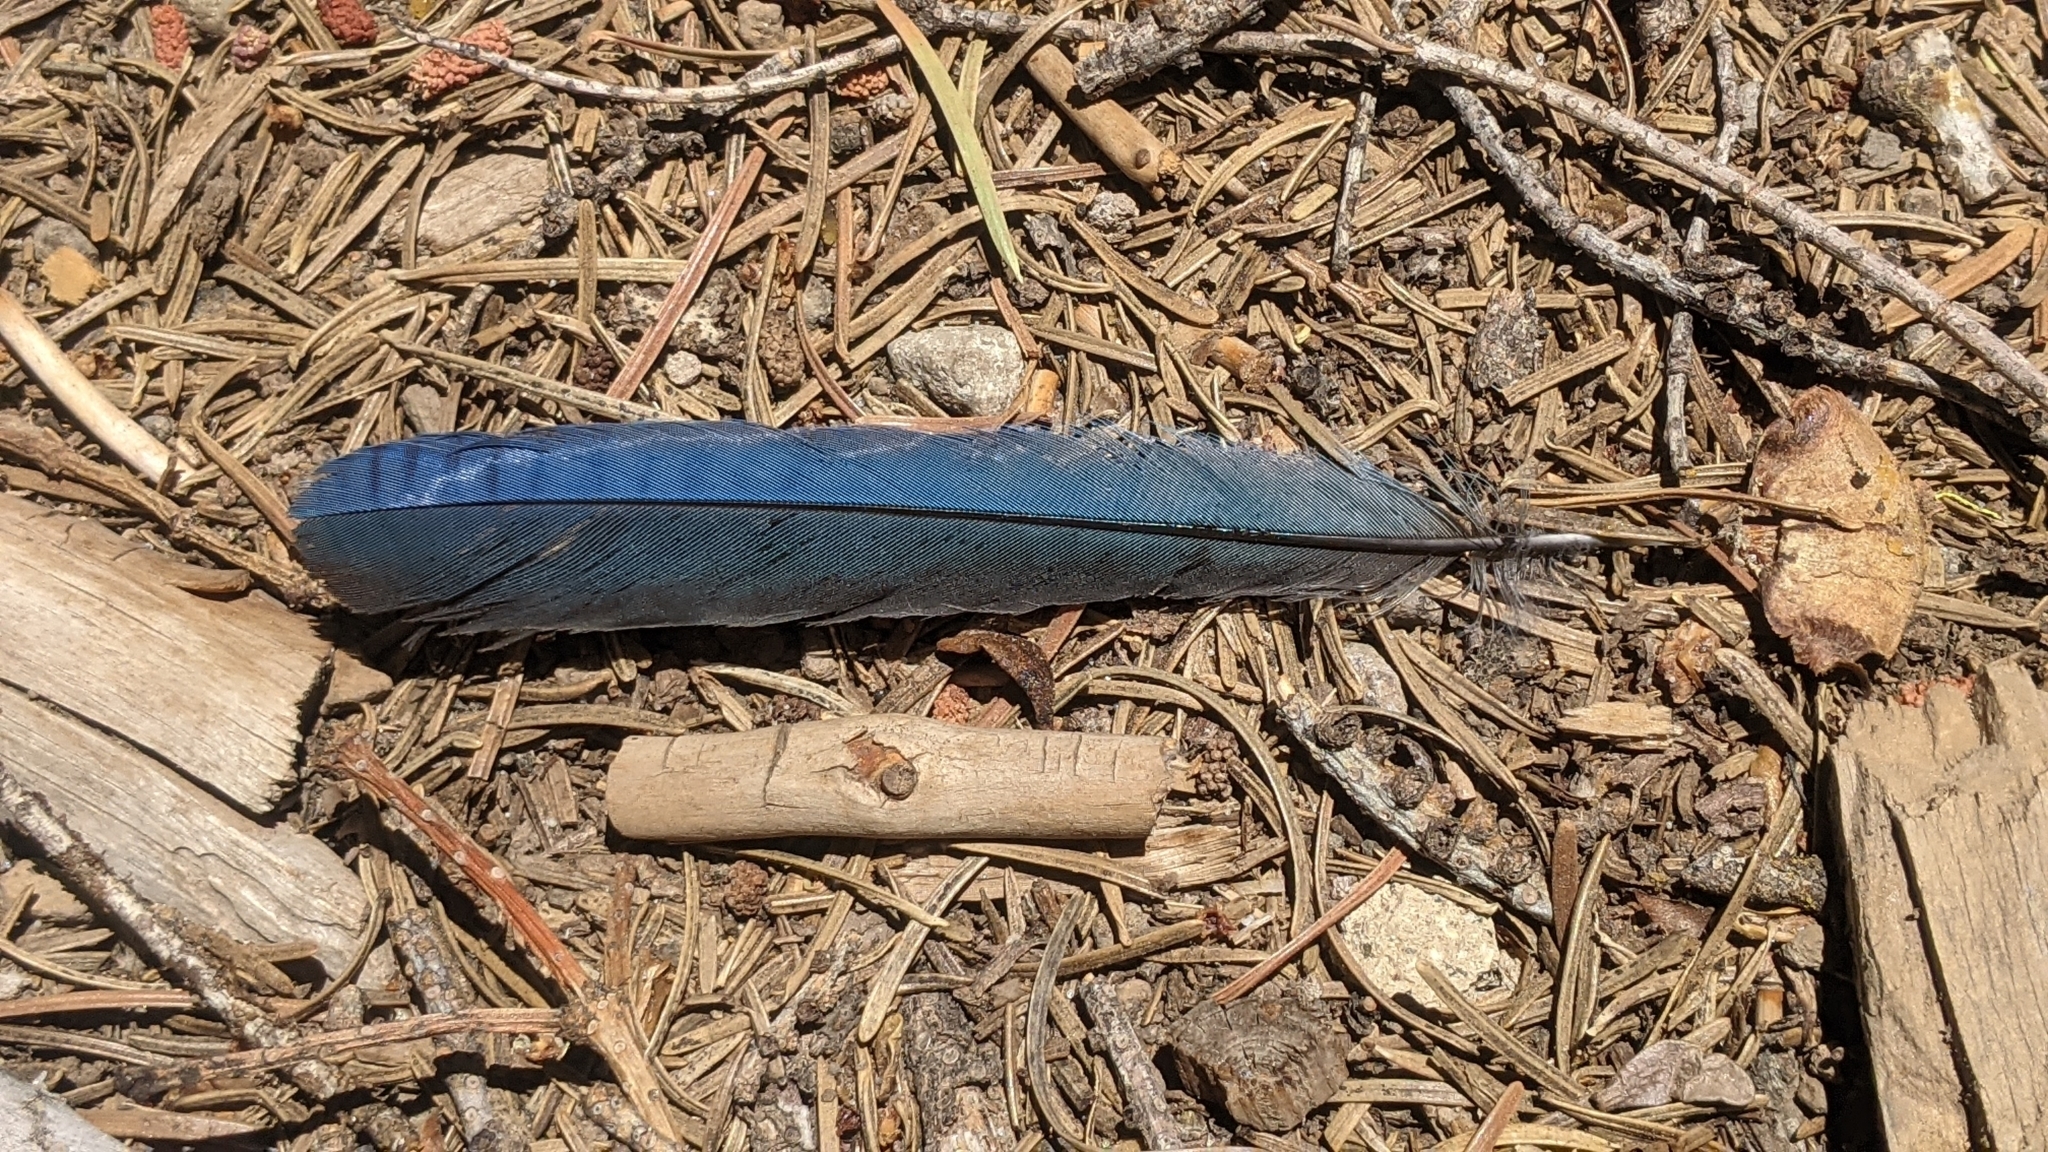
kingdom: Animalia
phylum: Chordata
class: Aves
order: Passeriformes
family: Corvidae
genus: Cyanocitta
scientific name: Cyanocitta stelleri
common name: Steller's jay
